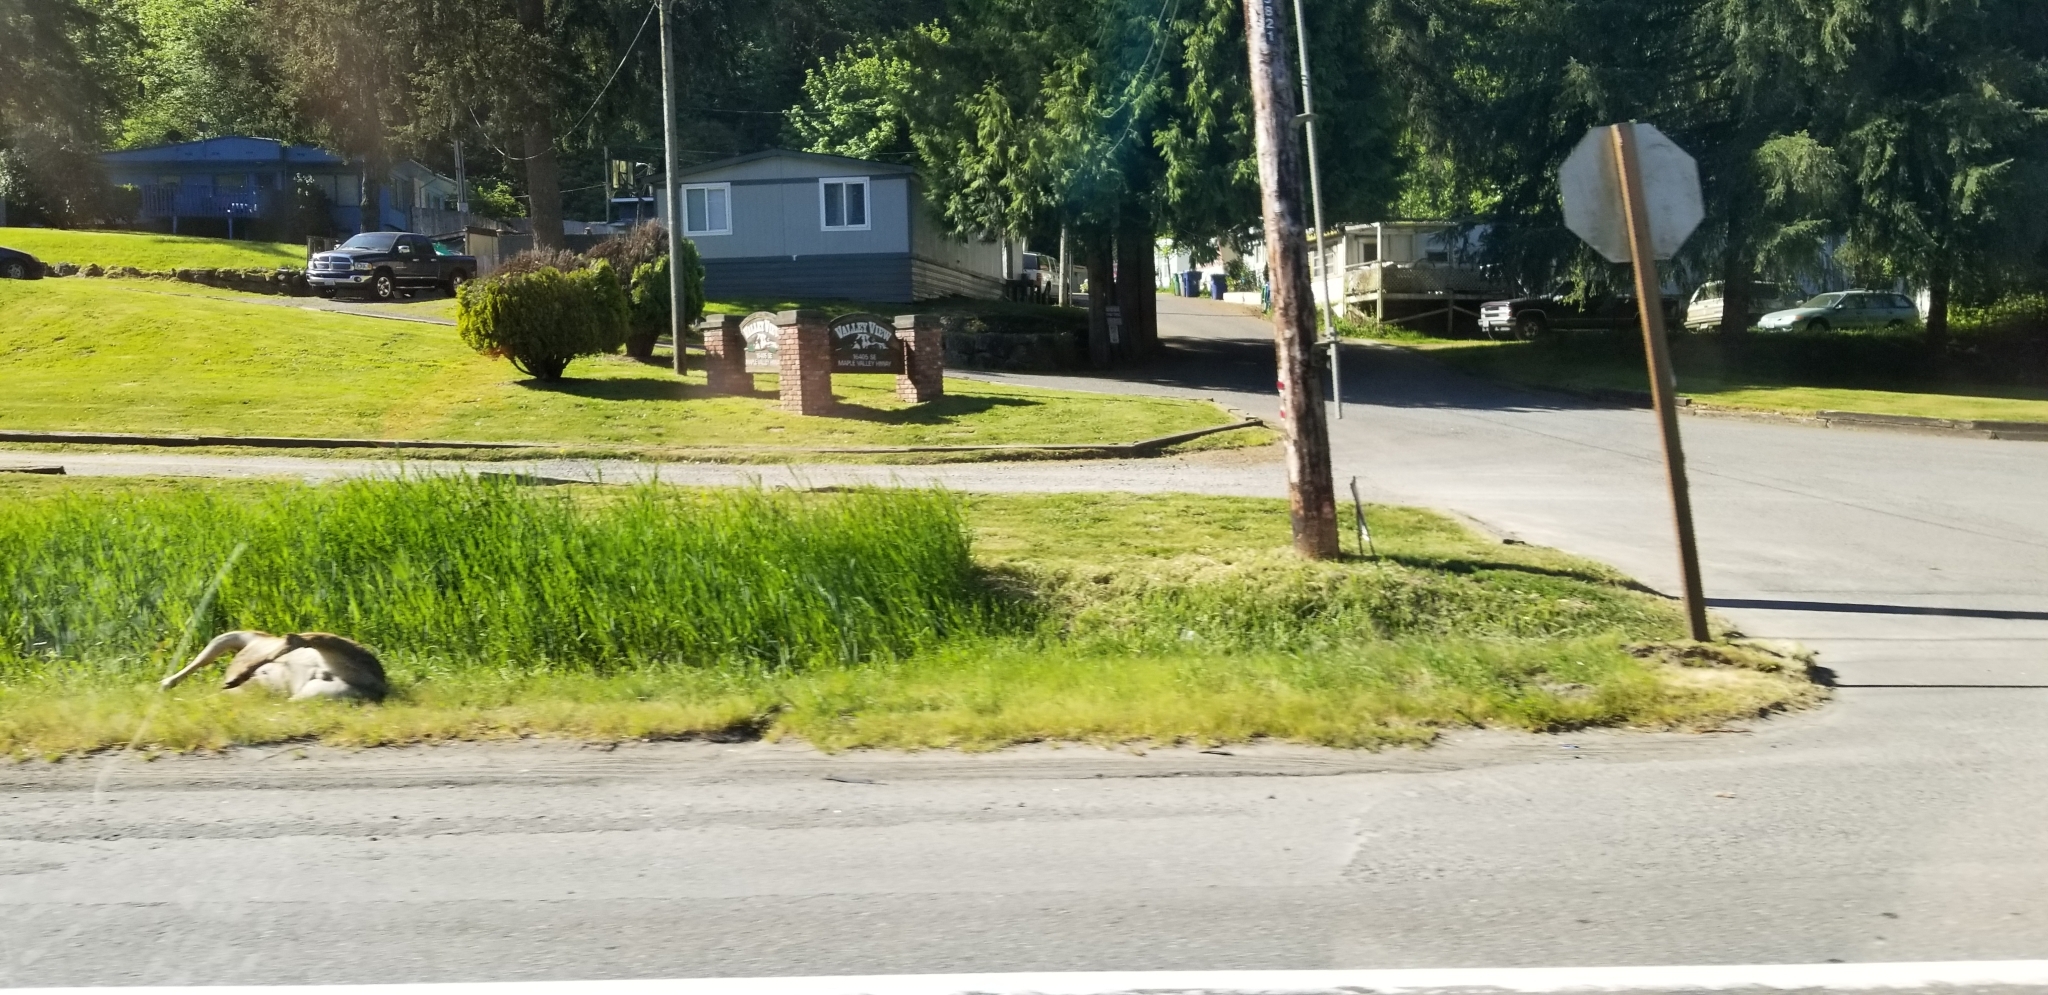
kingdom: Animalia
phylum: Chordata
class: Mammalia
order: Artiodactyla
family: Cervidae
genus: Odocoileus
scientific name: Odocoileus hemionus
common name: Mule deer
